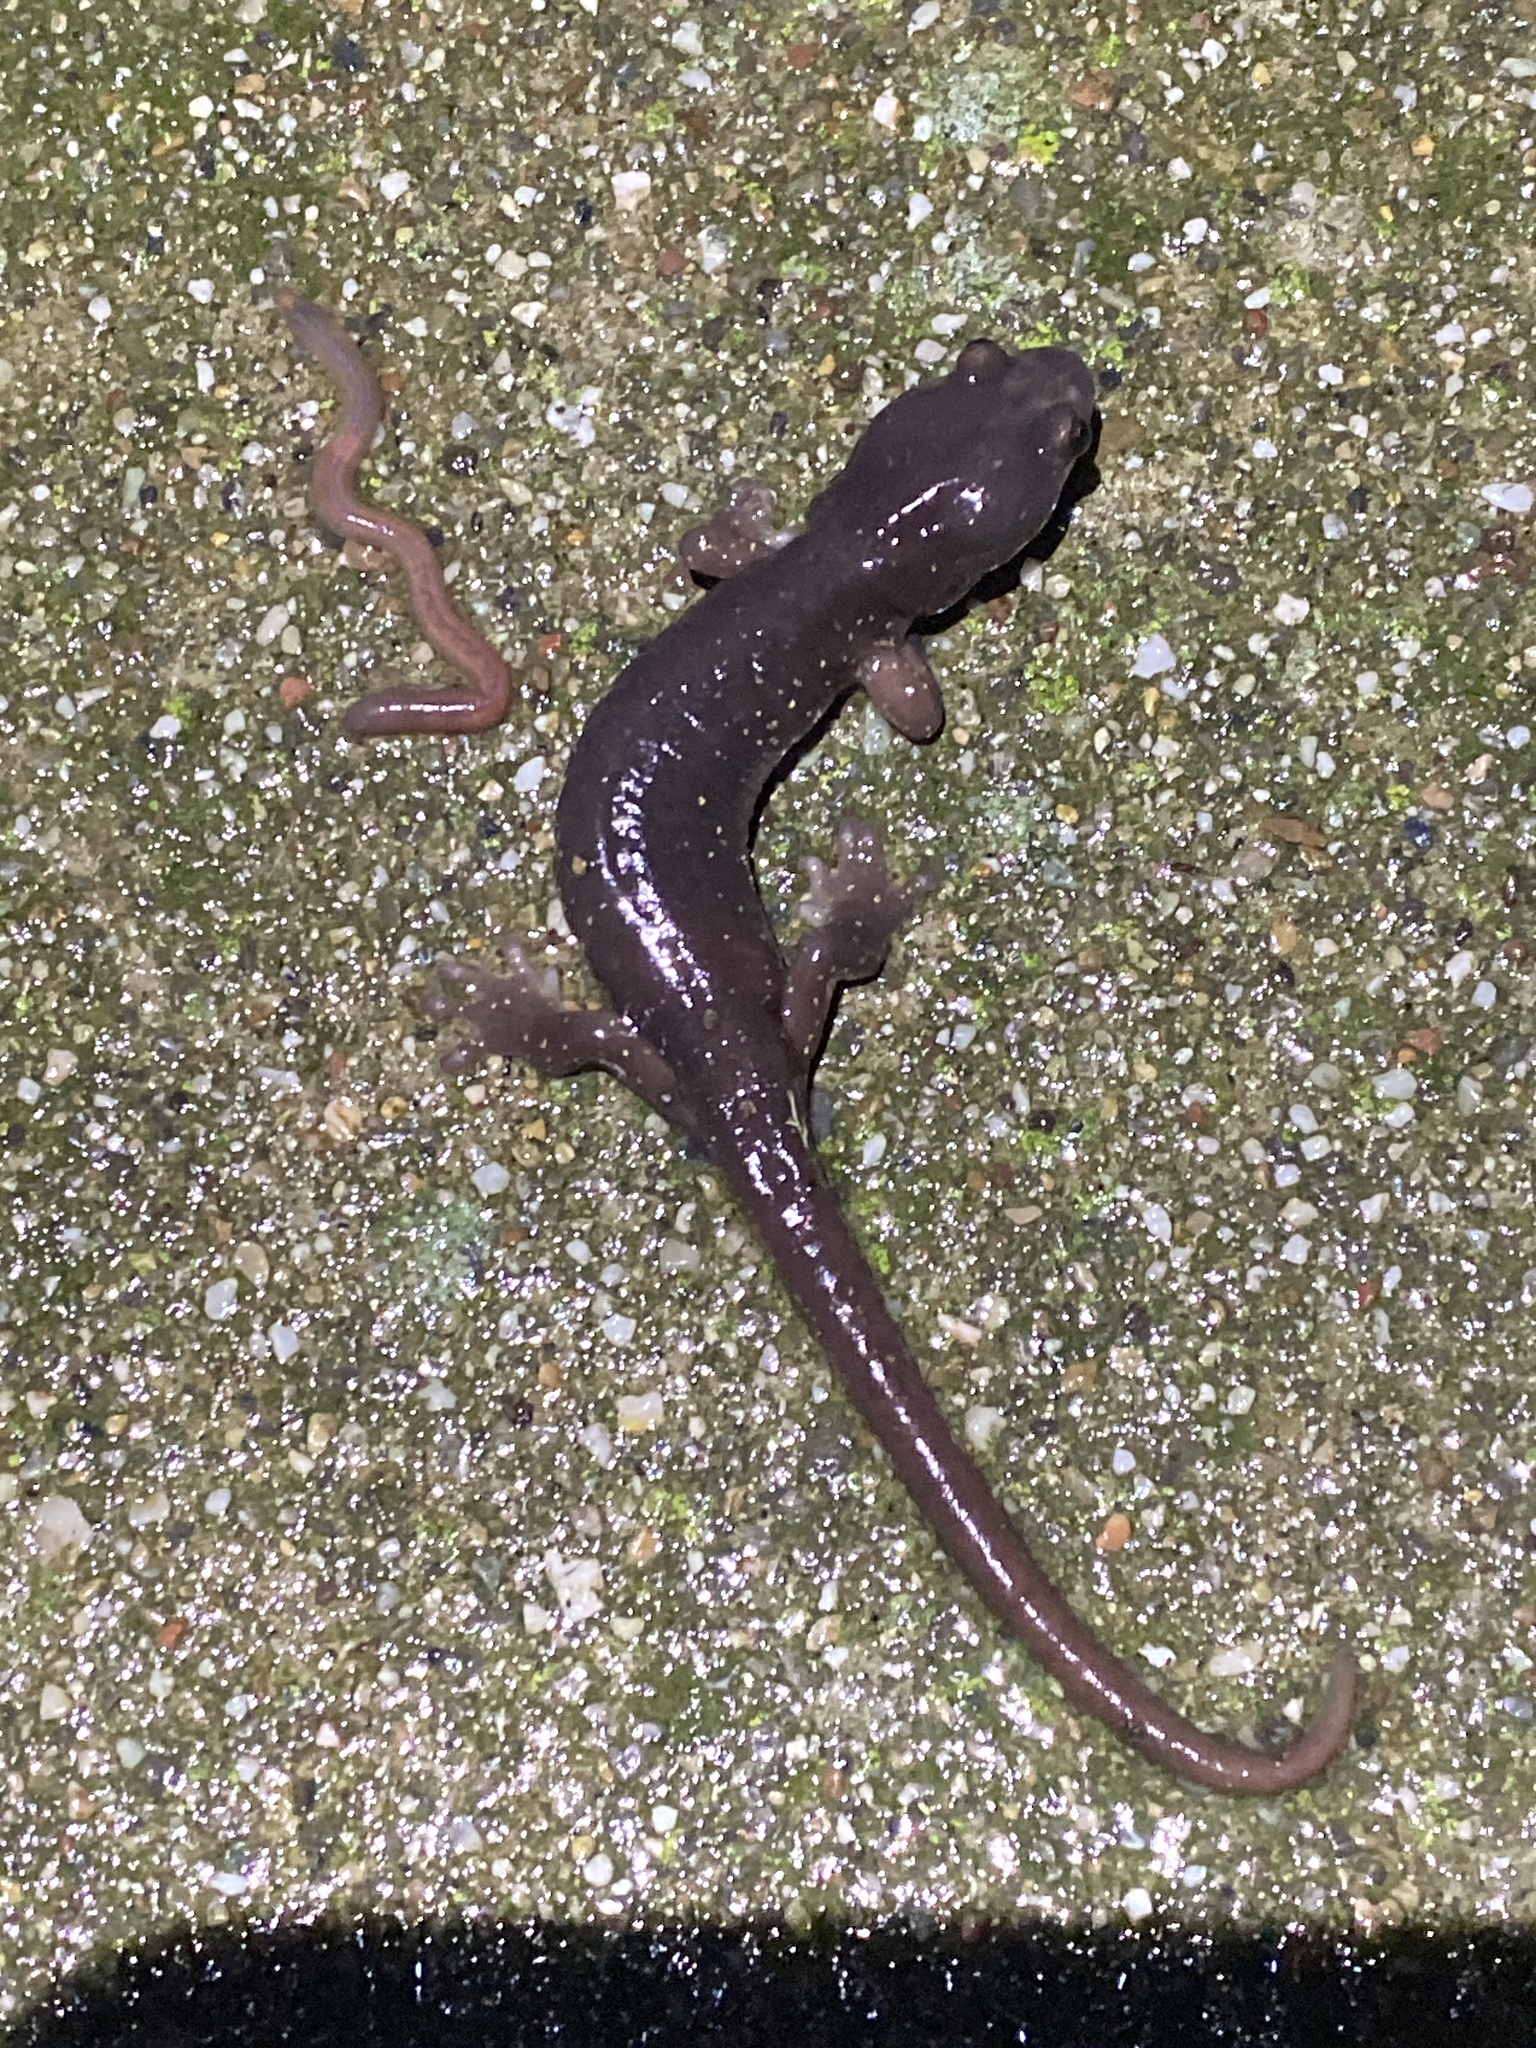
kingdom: Animalia
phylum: Chordata
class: Amphibia
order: Caudata
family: Plethodontidae
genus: Aneides
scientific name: Aneides lugubris
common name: Arboreal salamander
